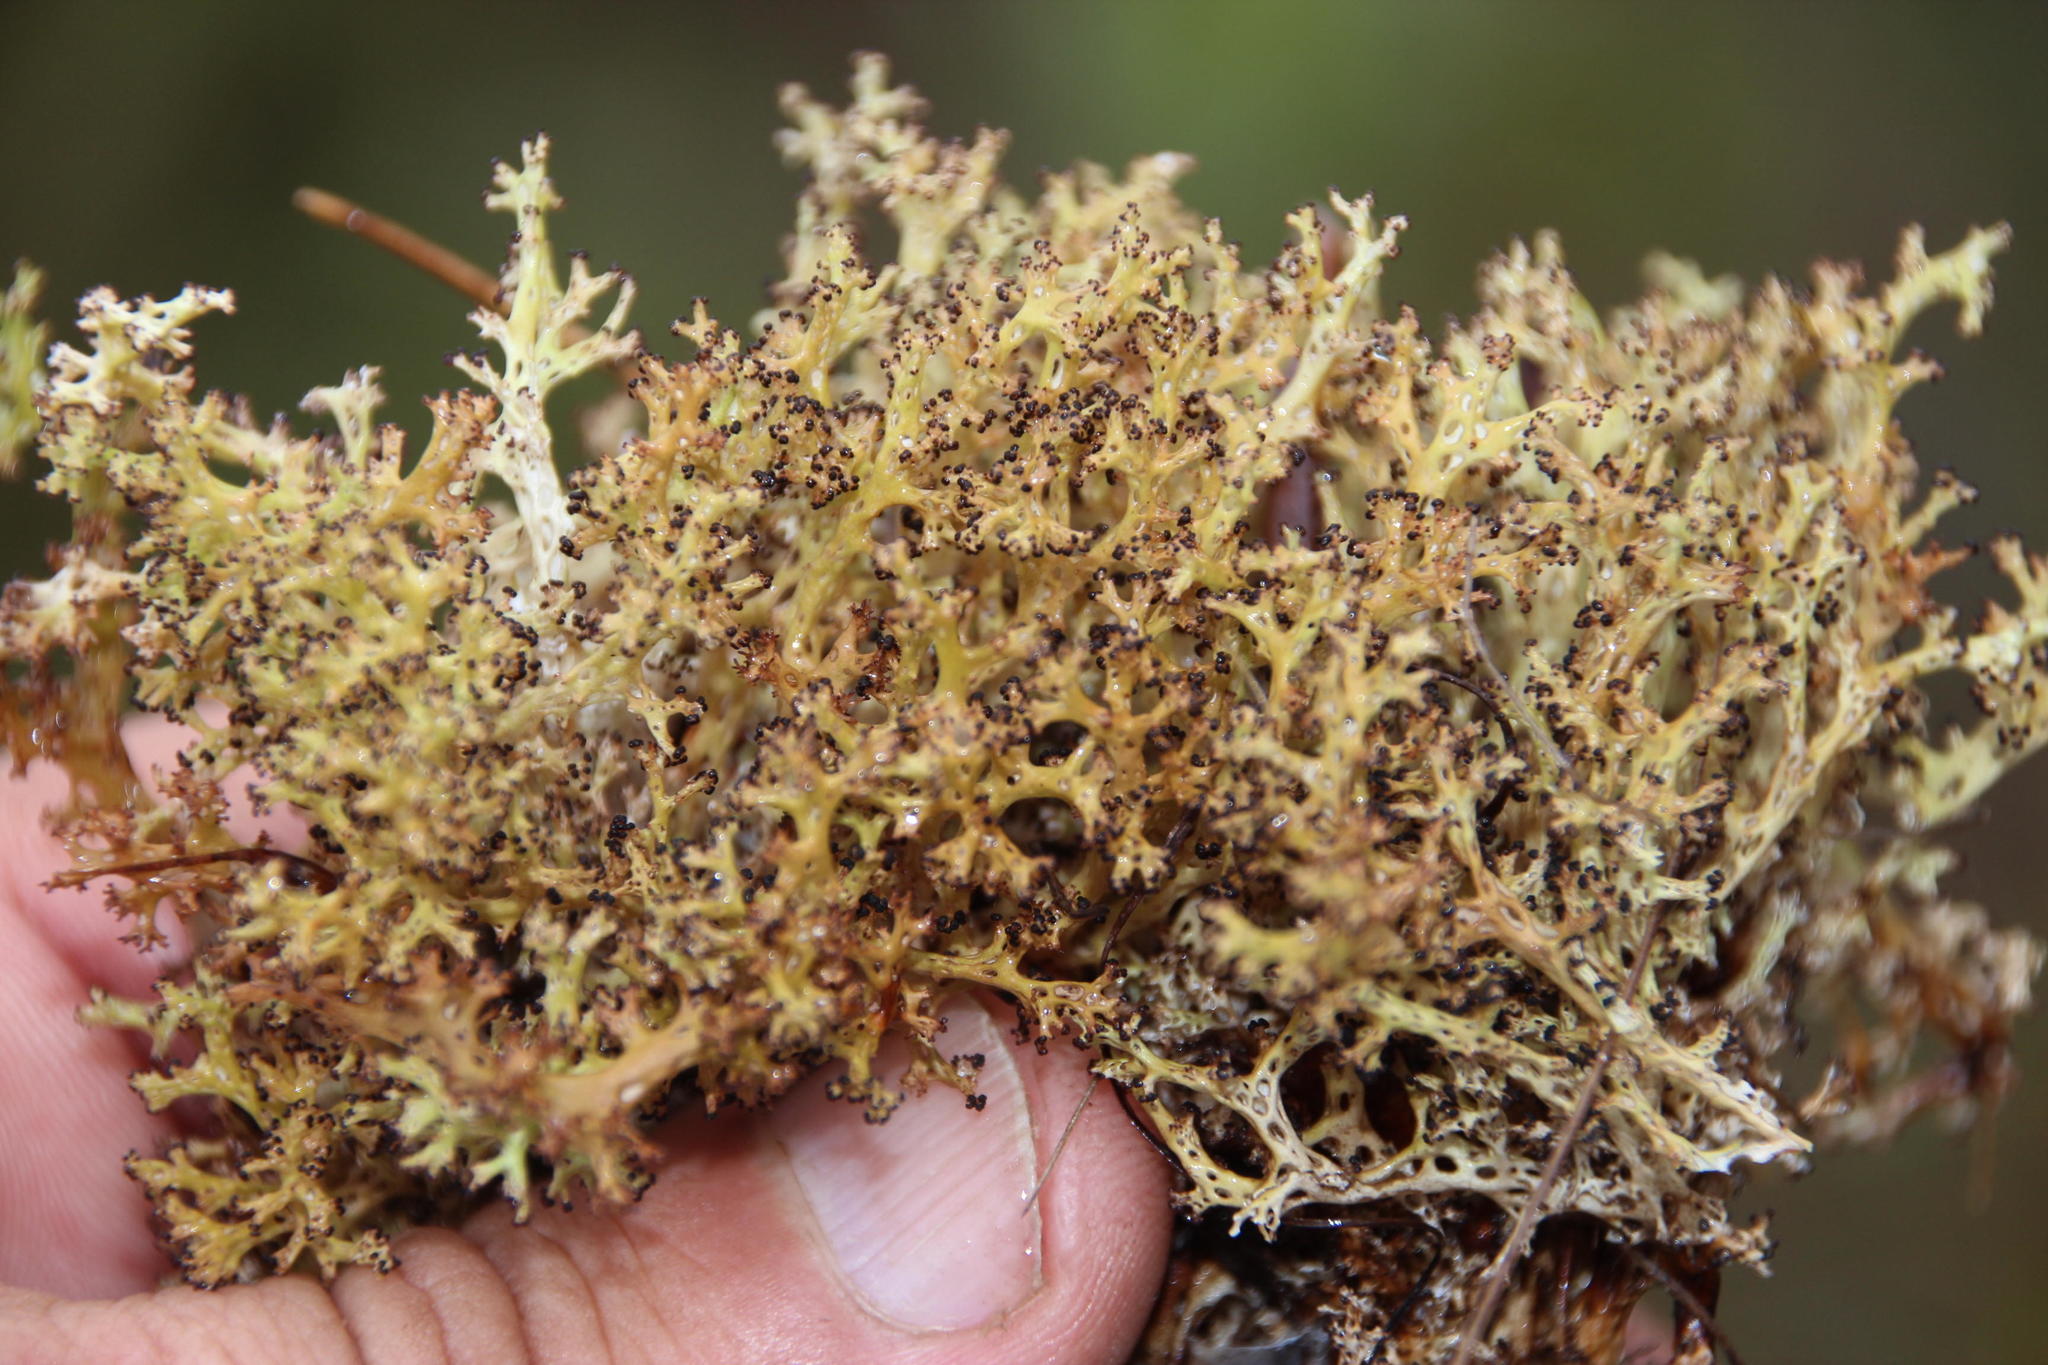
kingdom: Fungi
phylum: Ascomycota
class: Lecanoromycetes
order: Lecanorales
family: Cladoniaceae
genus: Cladia
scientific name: Cladia aggregata
